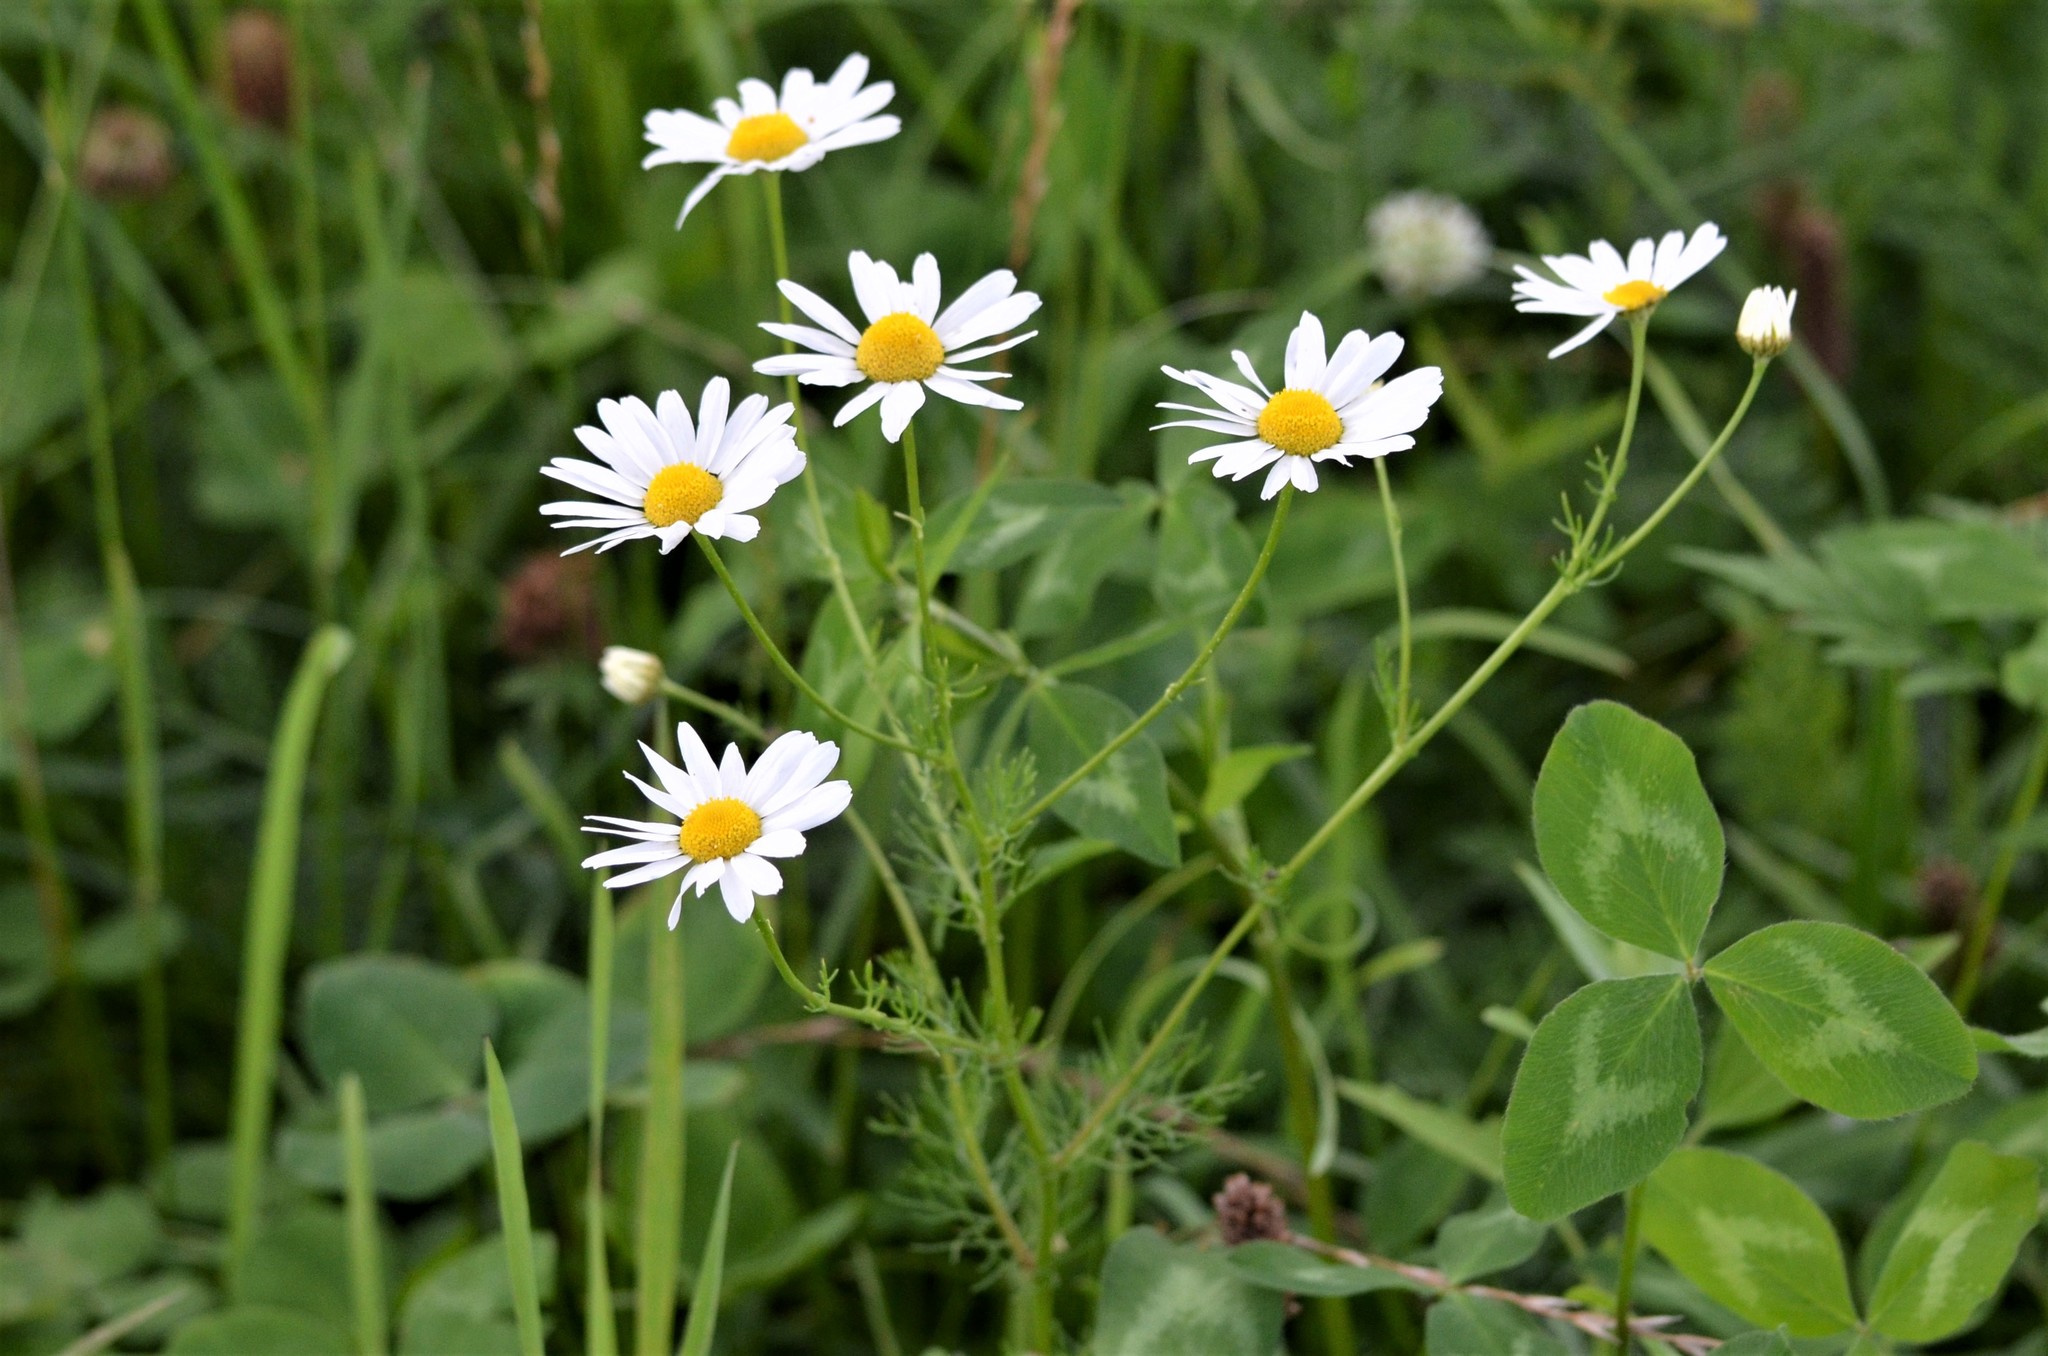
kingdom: Plantae
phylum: Tracheophyta
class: Magnoliopsida
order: Asterales
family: Asteraceae
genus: Tripleurospermum
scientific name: Tripleurospermum inodorum
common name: Scentless mayweed
